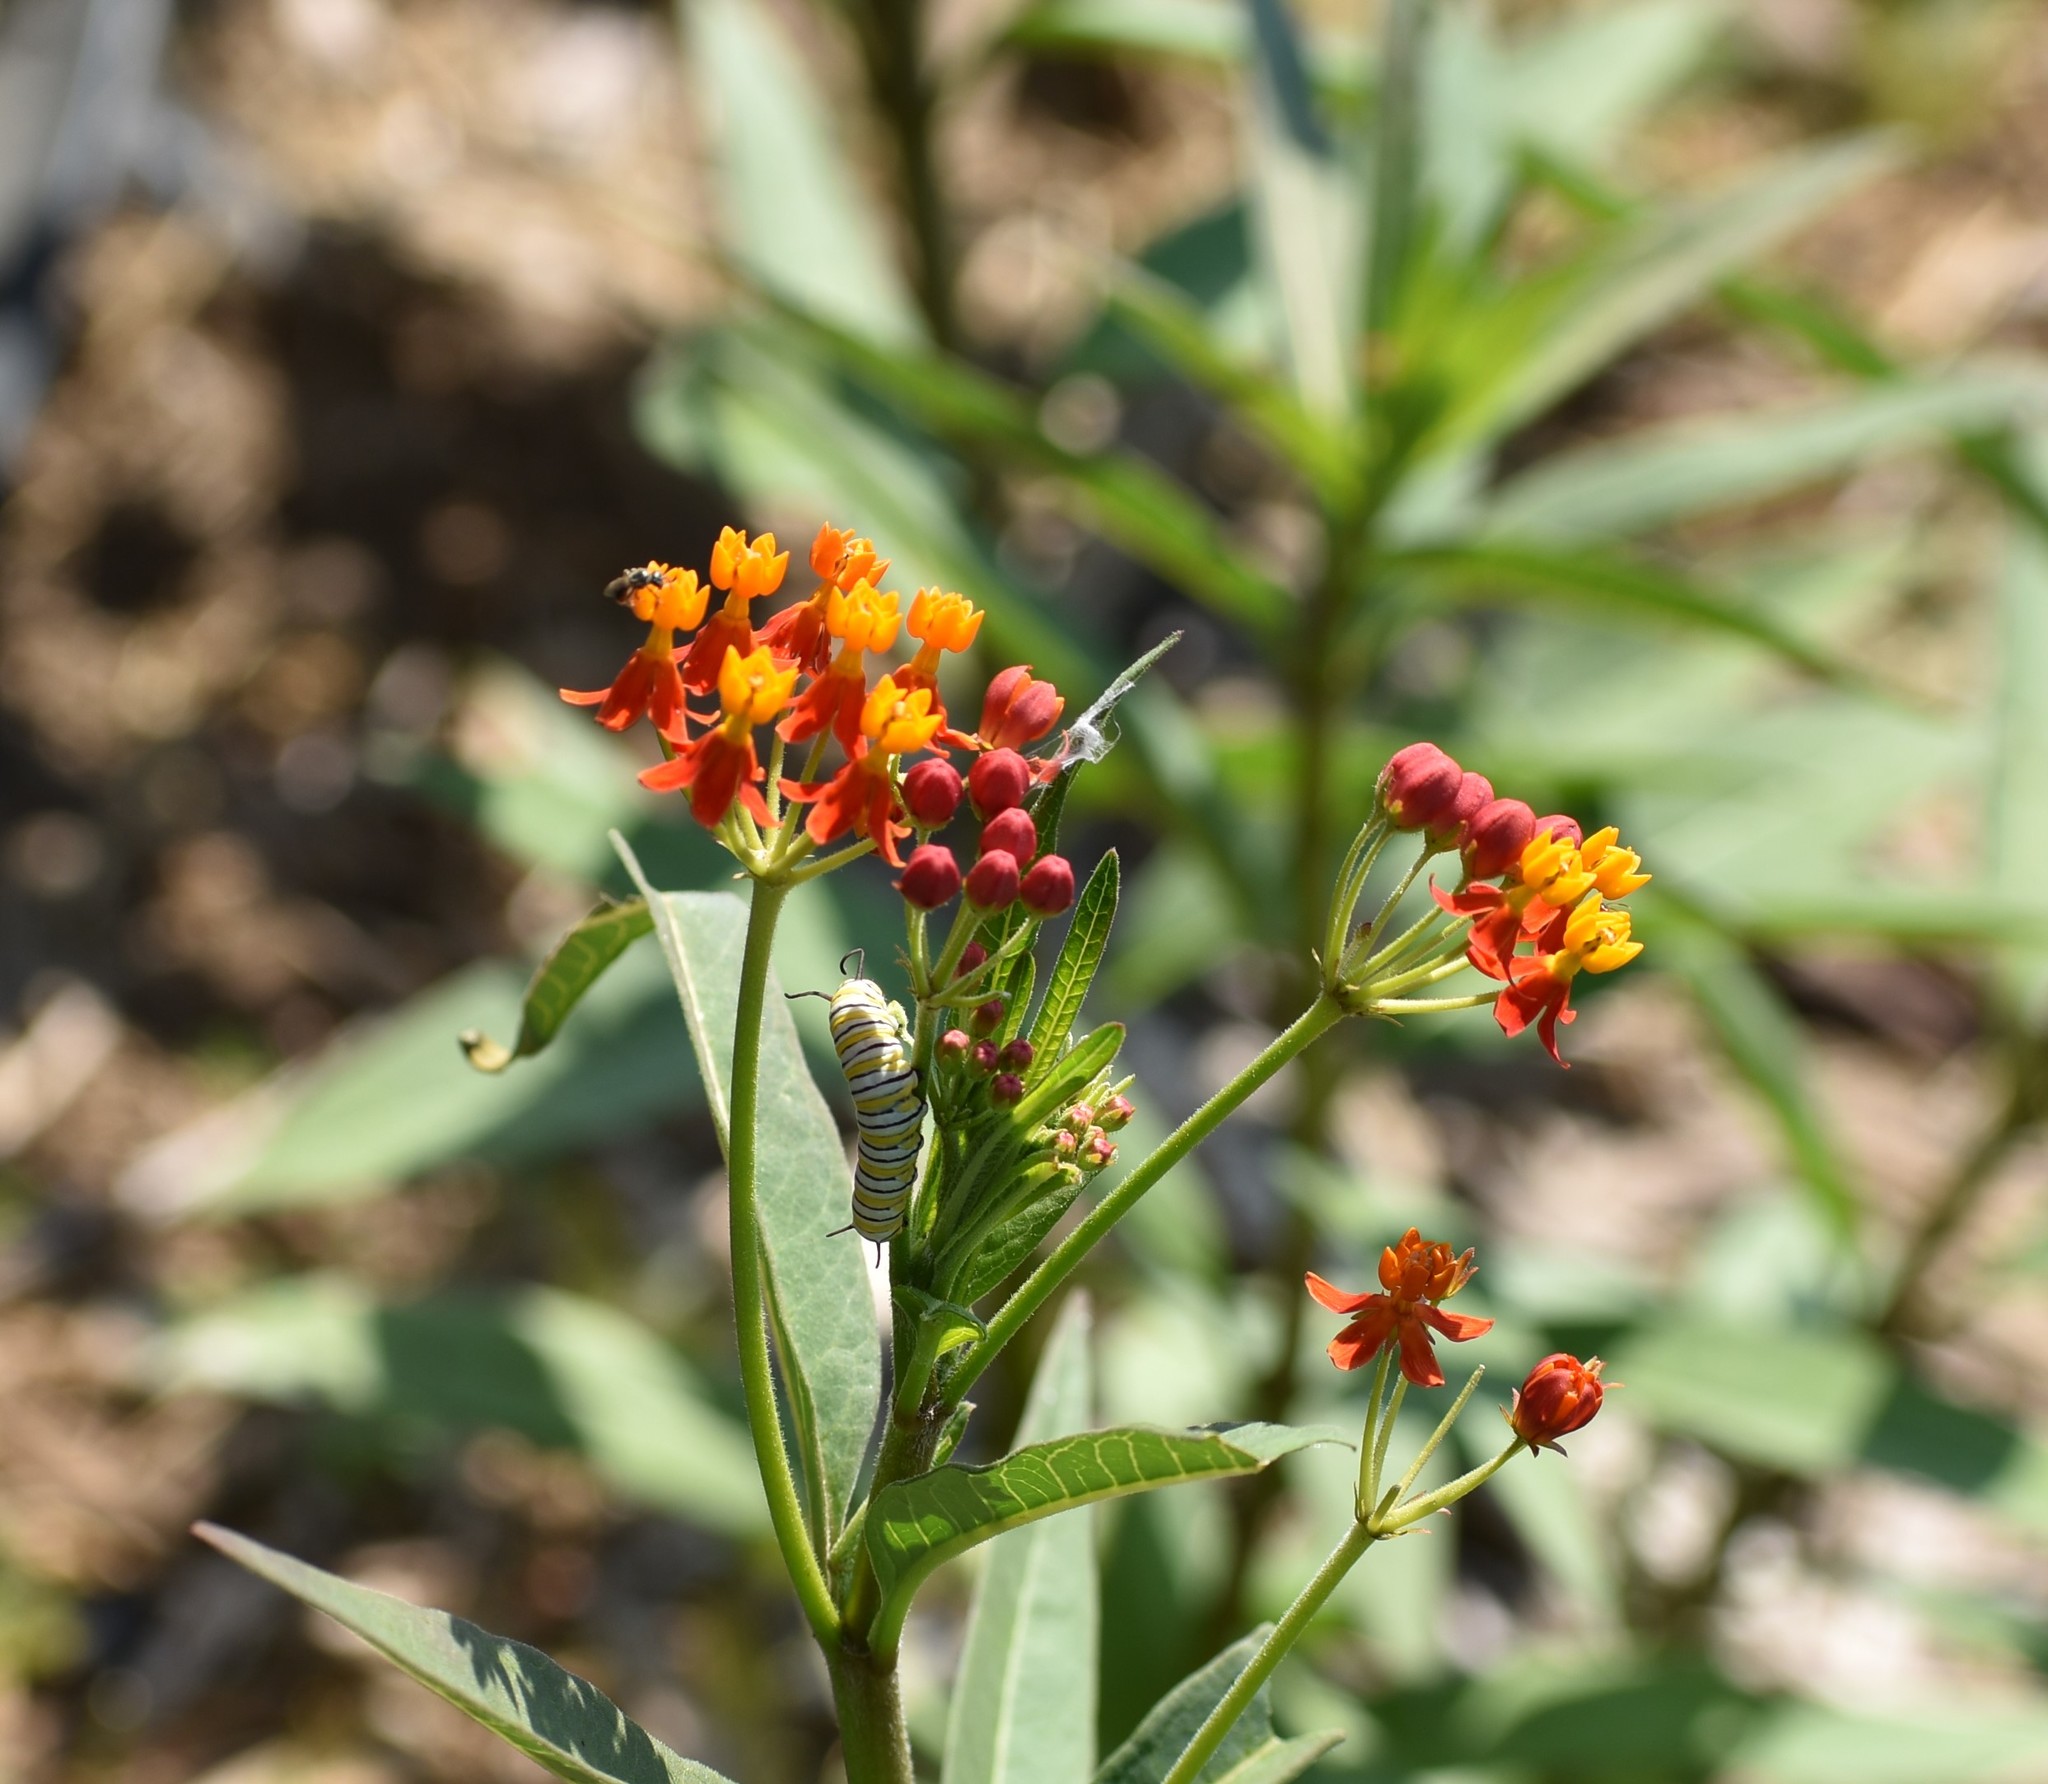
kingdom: Animalia
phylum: Arthropoda
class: Insecta
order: Lepidoptera
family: Nymphalidae
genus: Danaus
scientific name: Danaus plexippus
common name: Monarch
